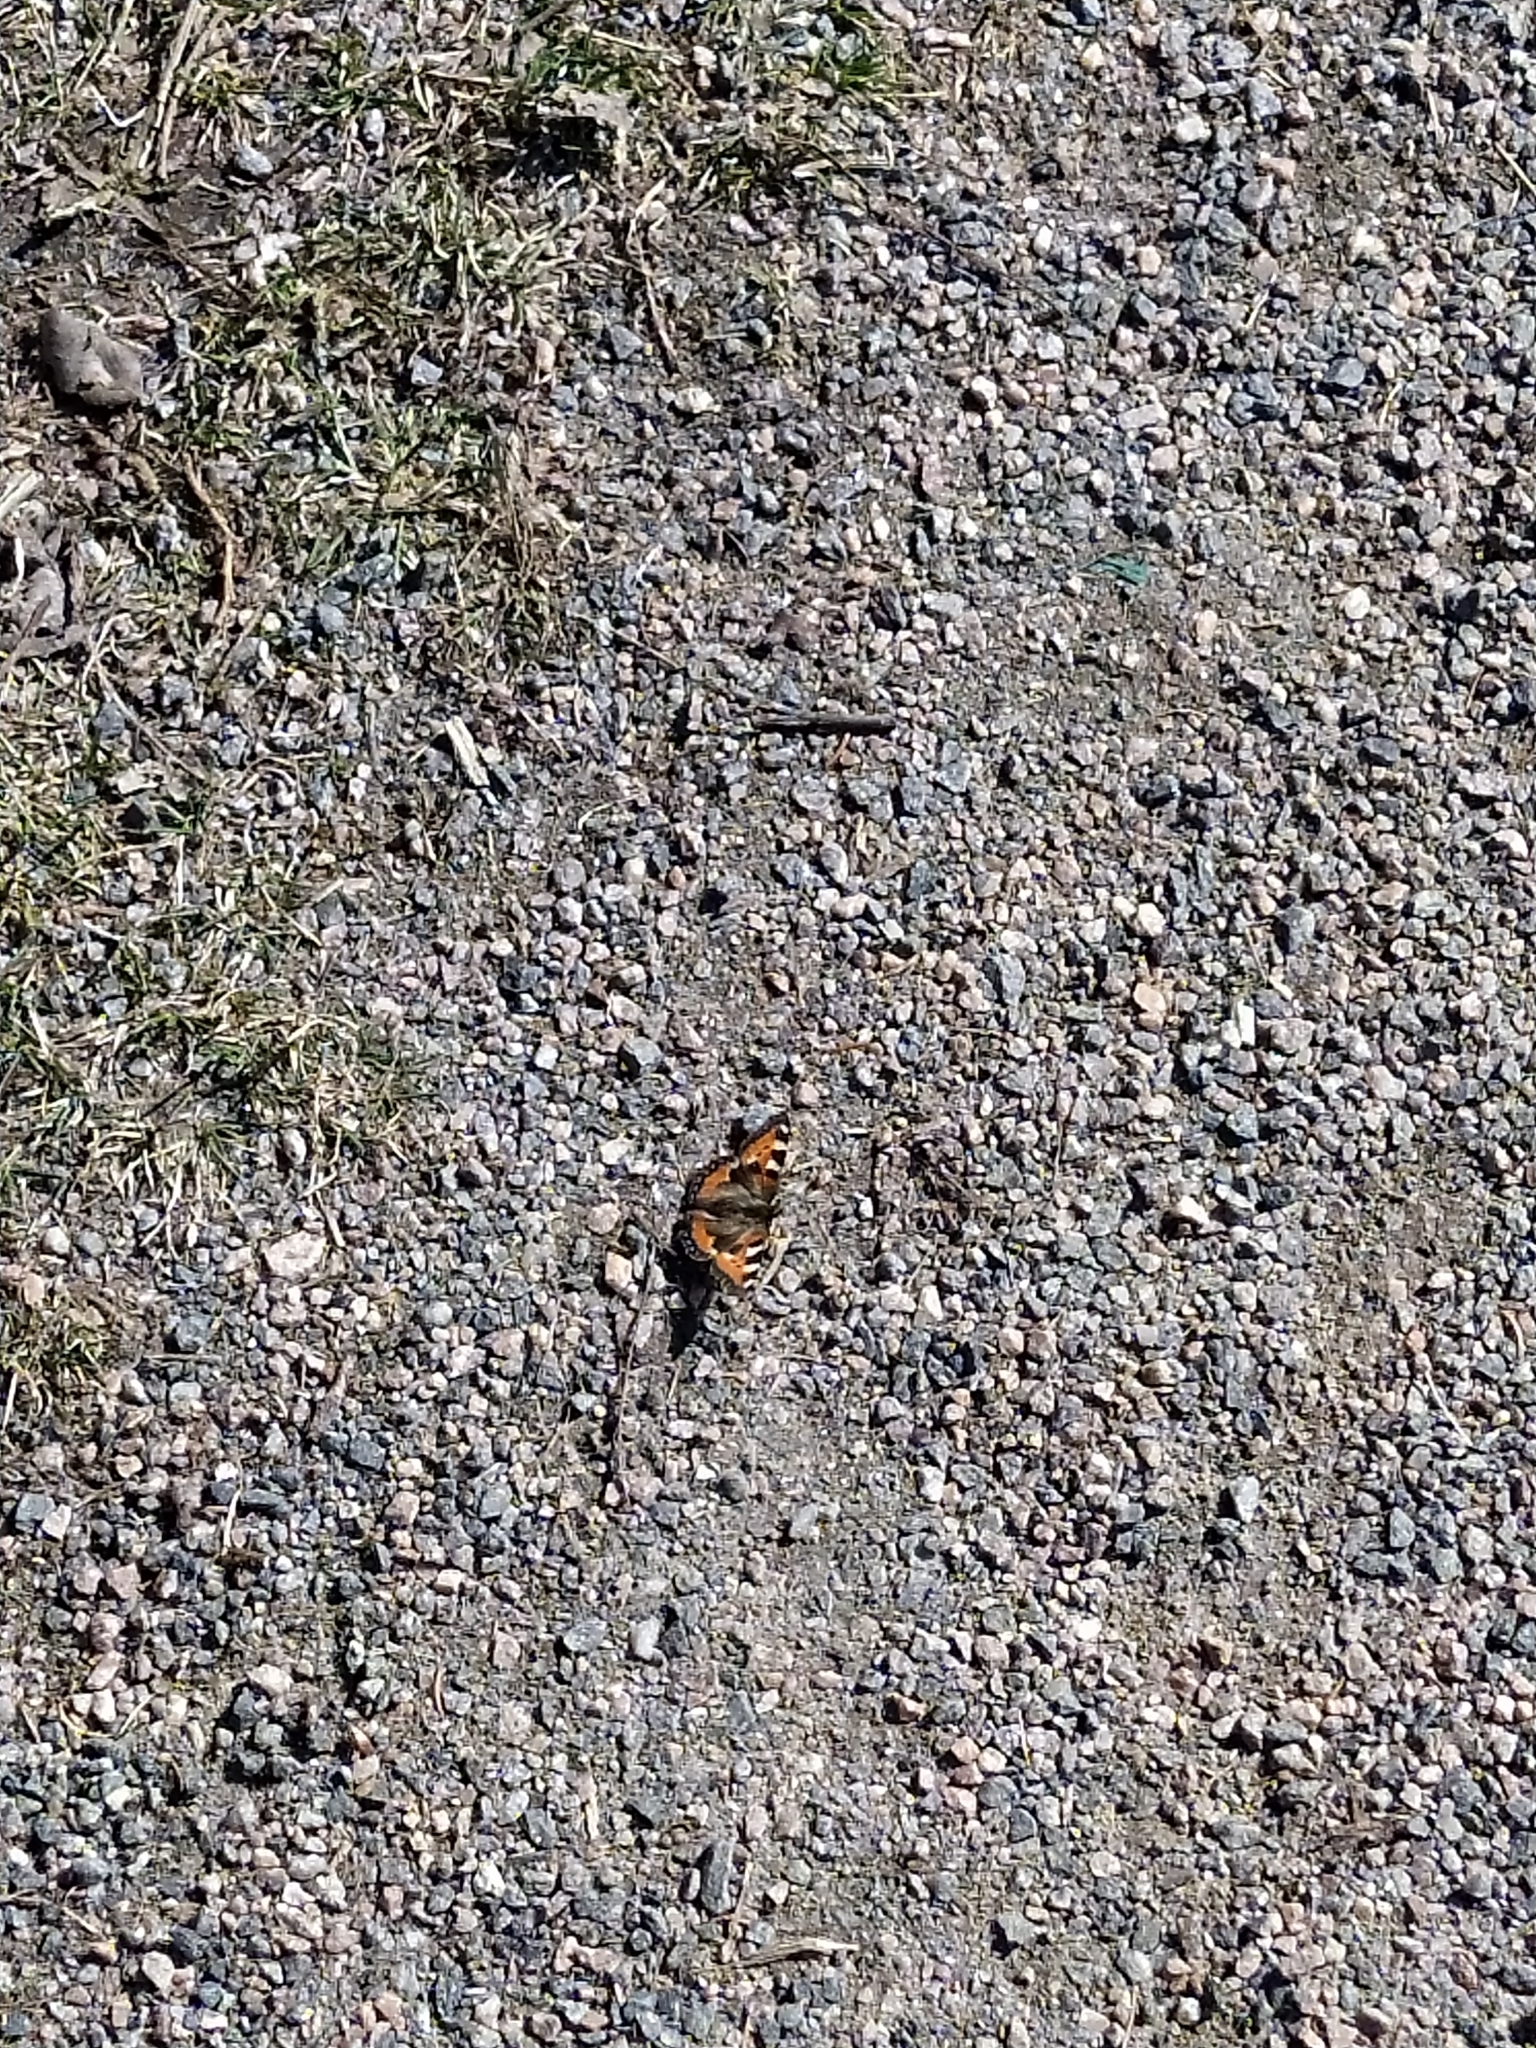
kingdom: Animalia
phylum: Arthropoda
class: Insecta
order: Lepidoptera
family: Nymphalidae
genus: Aglais
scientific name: Aglais urticae
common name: Small tortoiseshell
